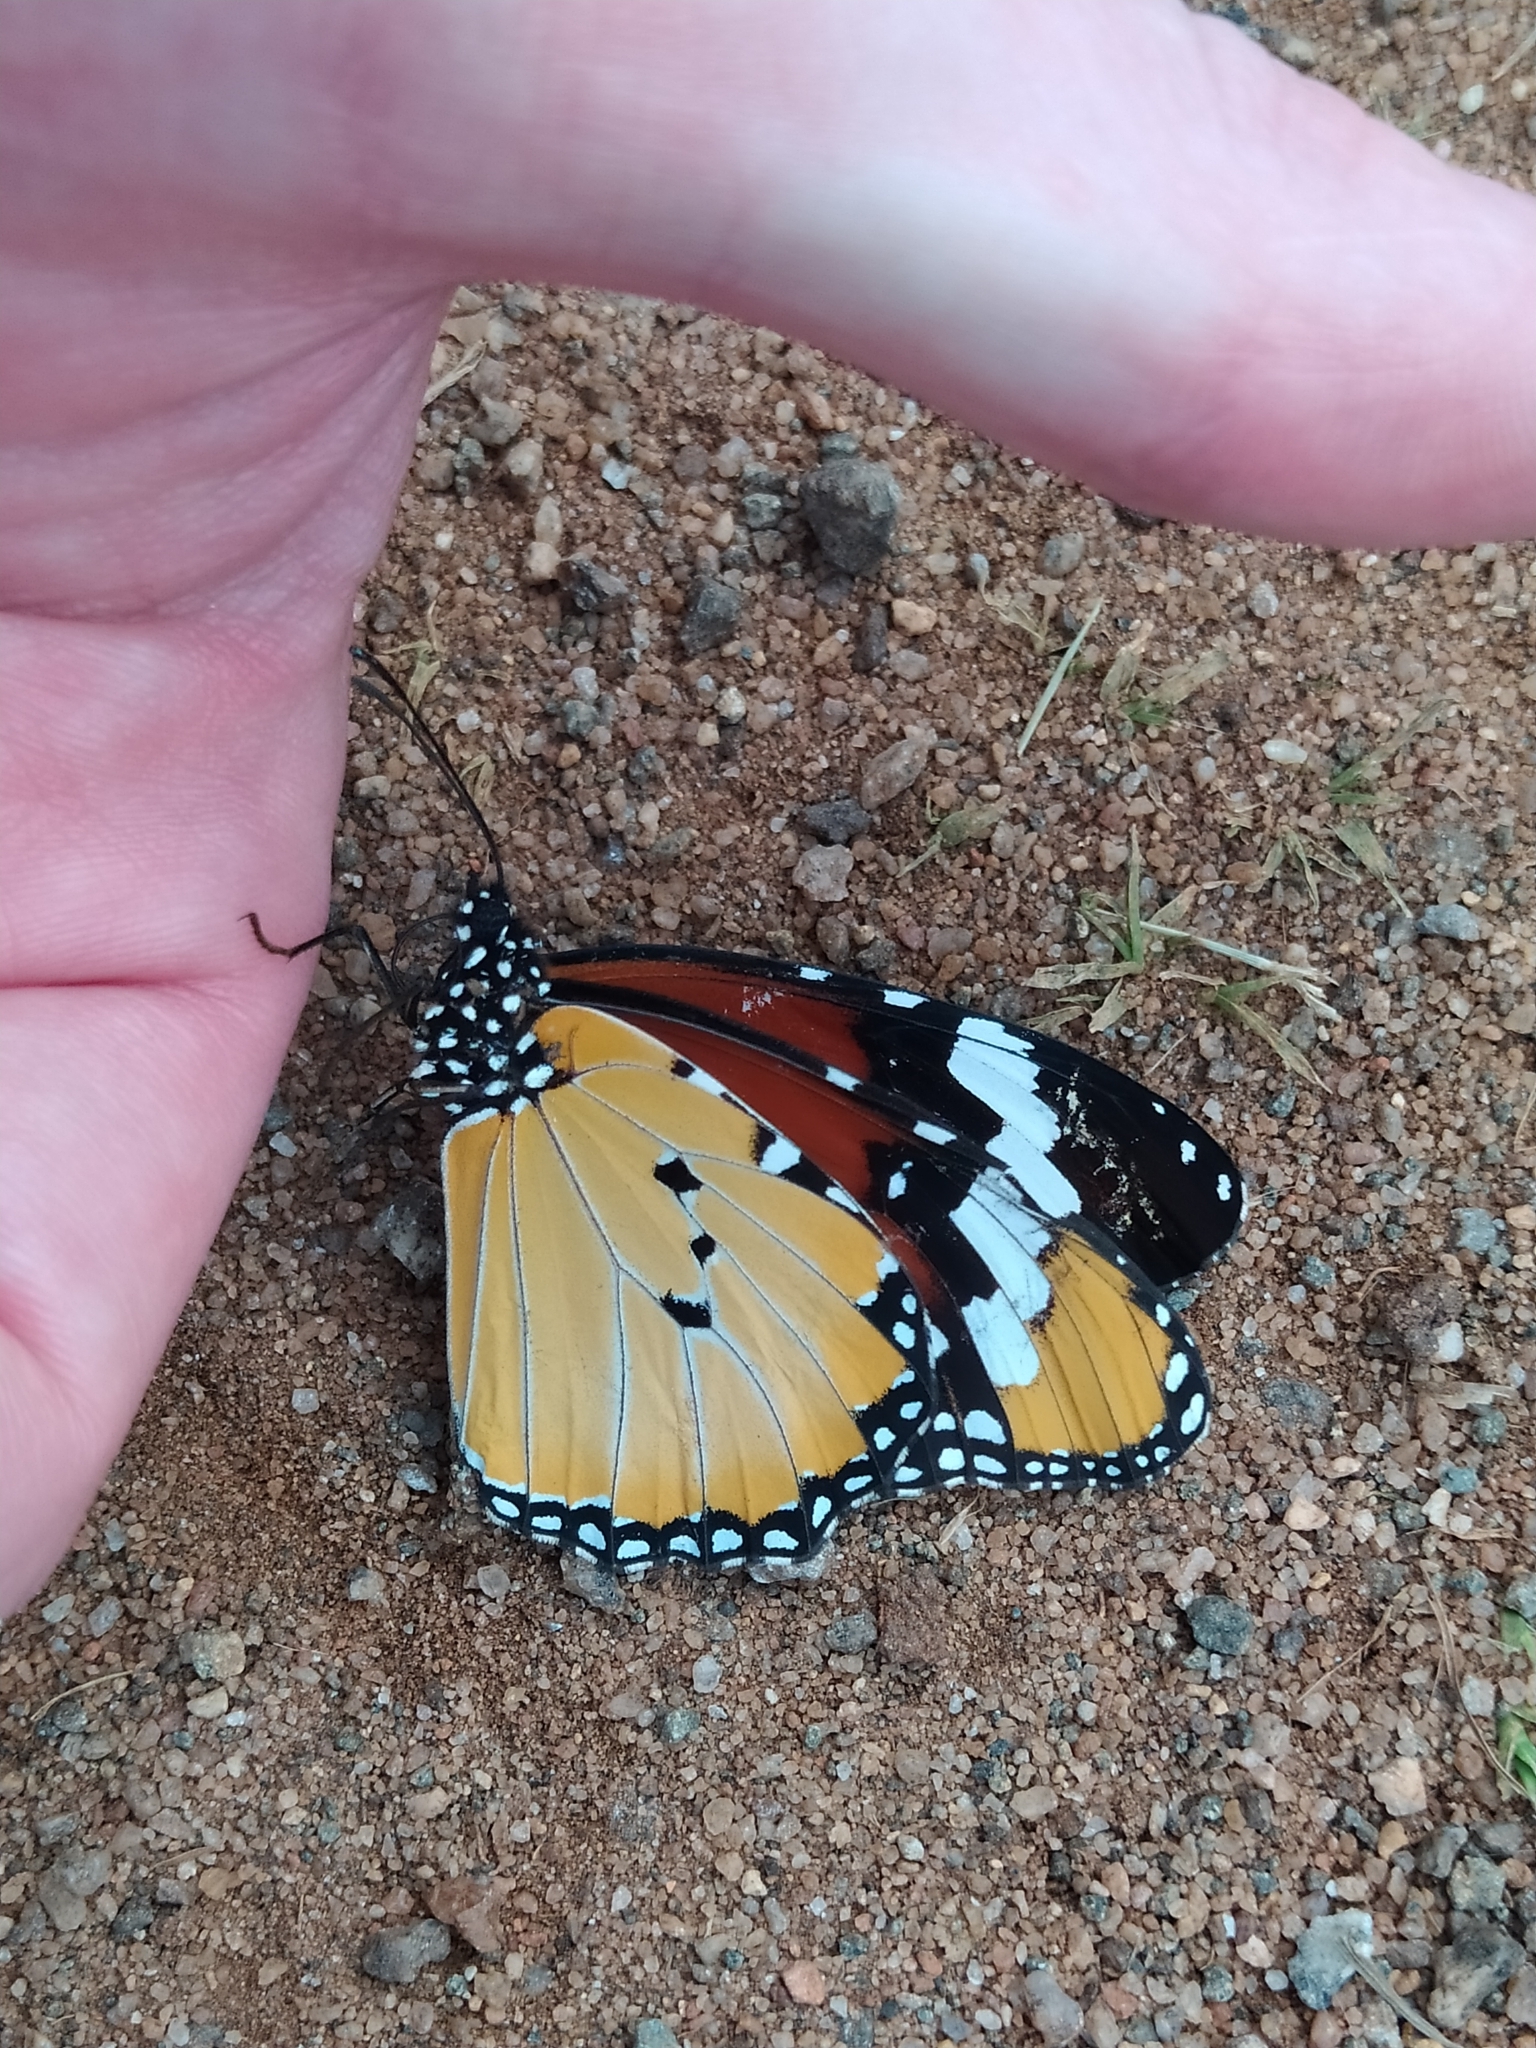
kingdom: Animalia
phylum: Arthropoda
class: Insecta
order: Lepidoptera
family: Nymphalidae
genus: Danaus
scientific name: Danaus chrysippus
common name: Plain tiger
